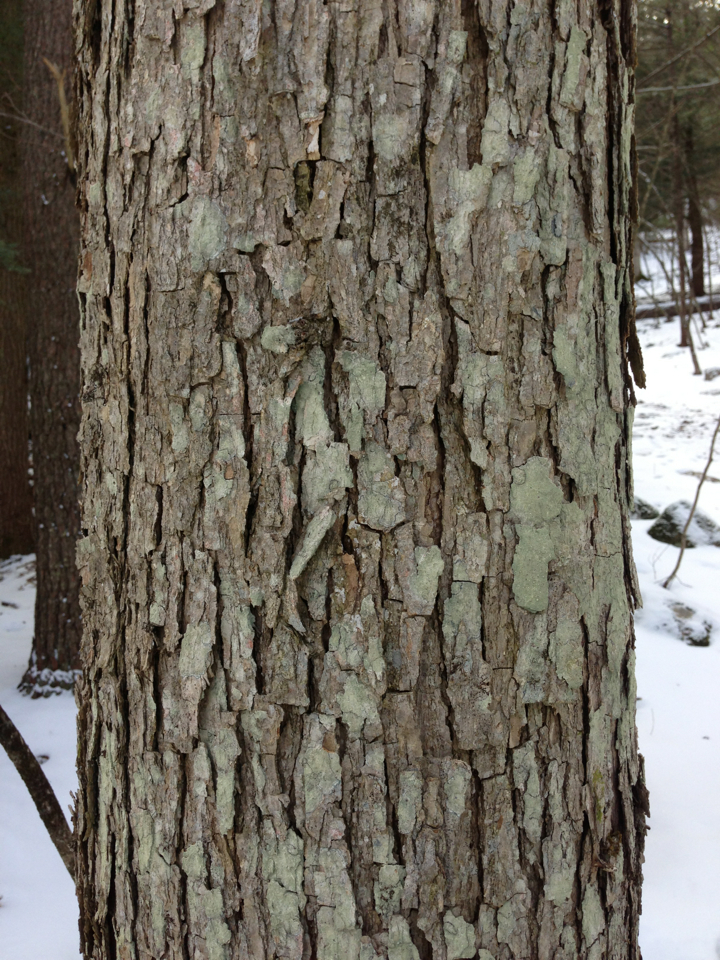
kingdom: Plantae
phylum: Tracheophyta
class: Magnoliopsida
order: Fagales
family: Fagaceae
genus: Quercus
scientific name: Quercus alba
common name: White oak
